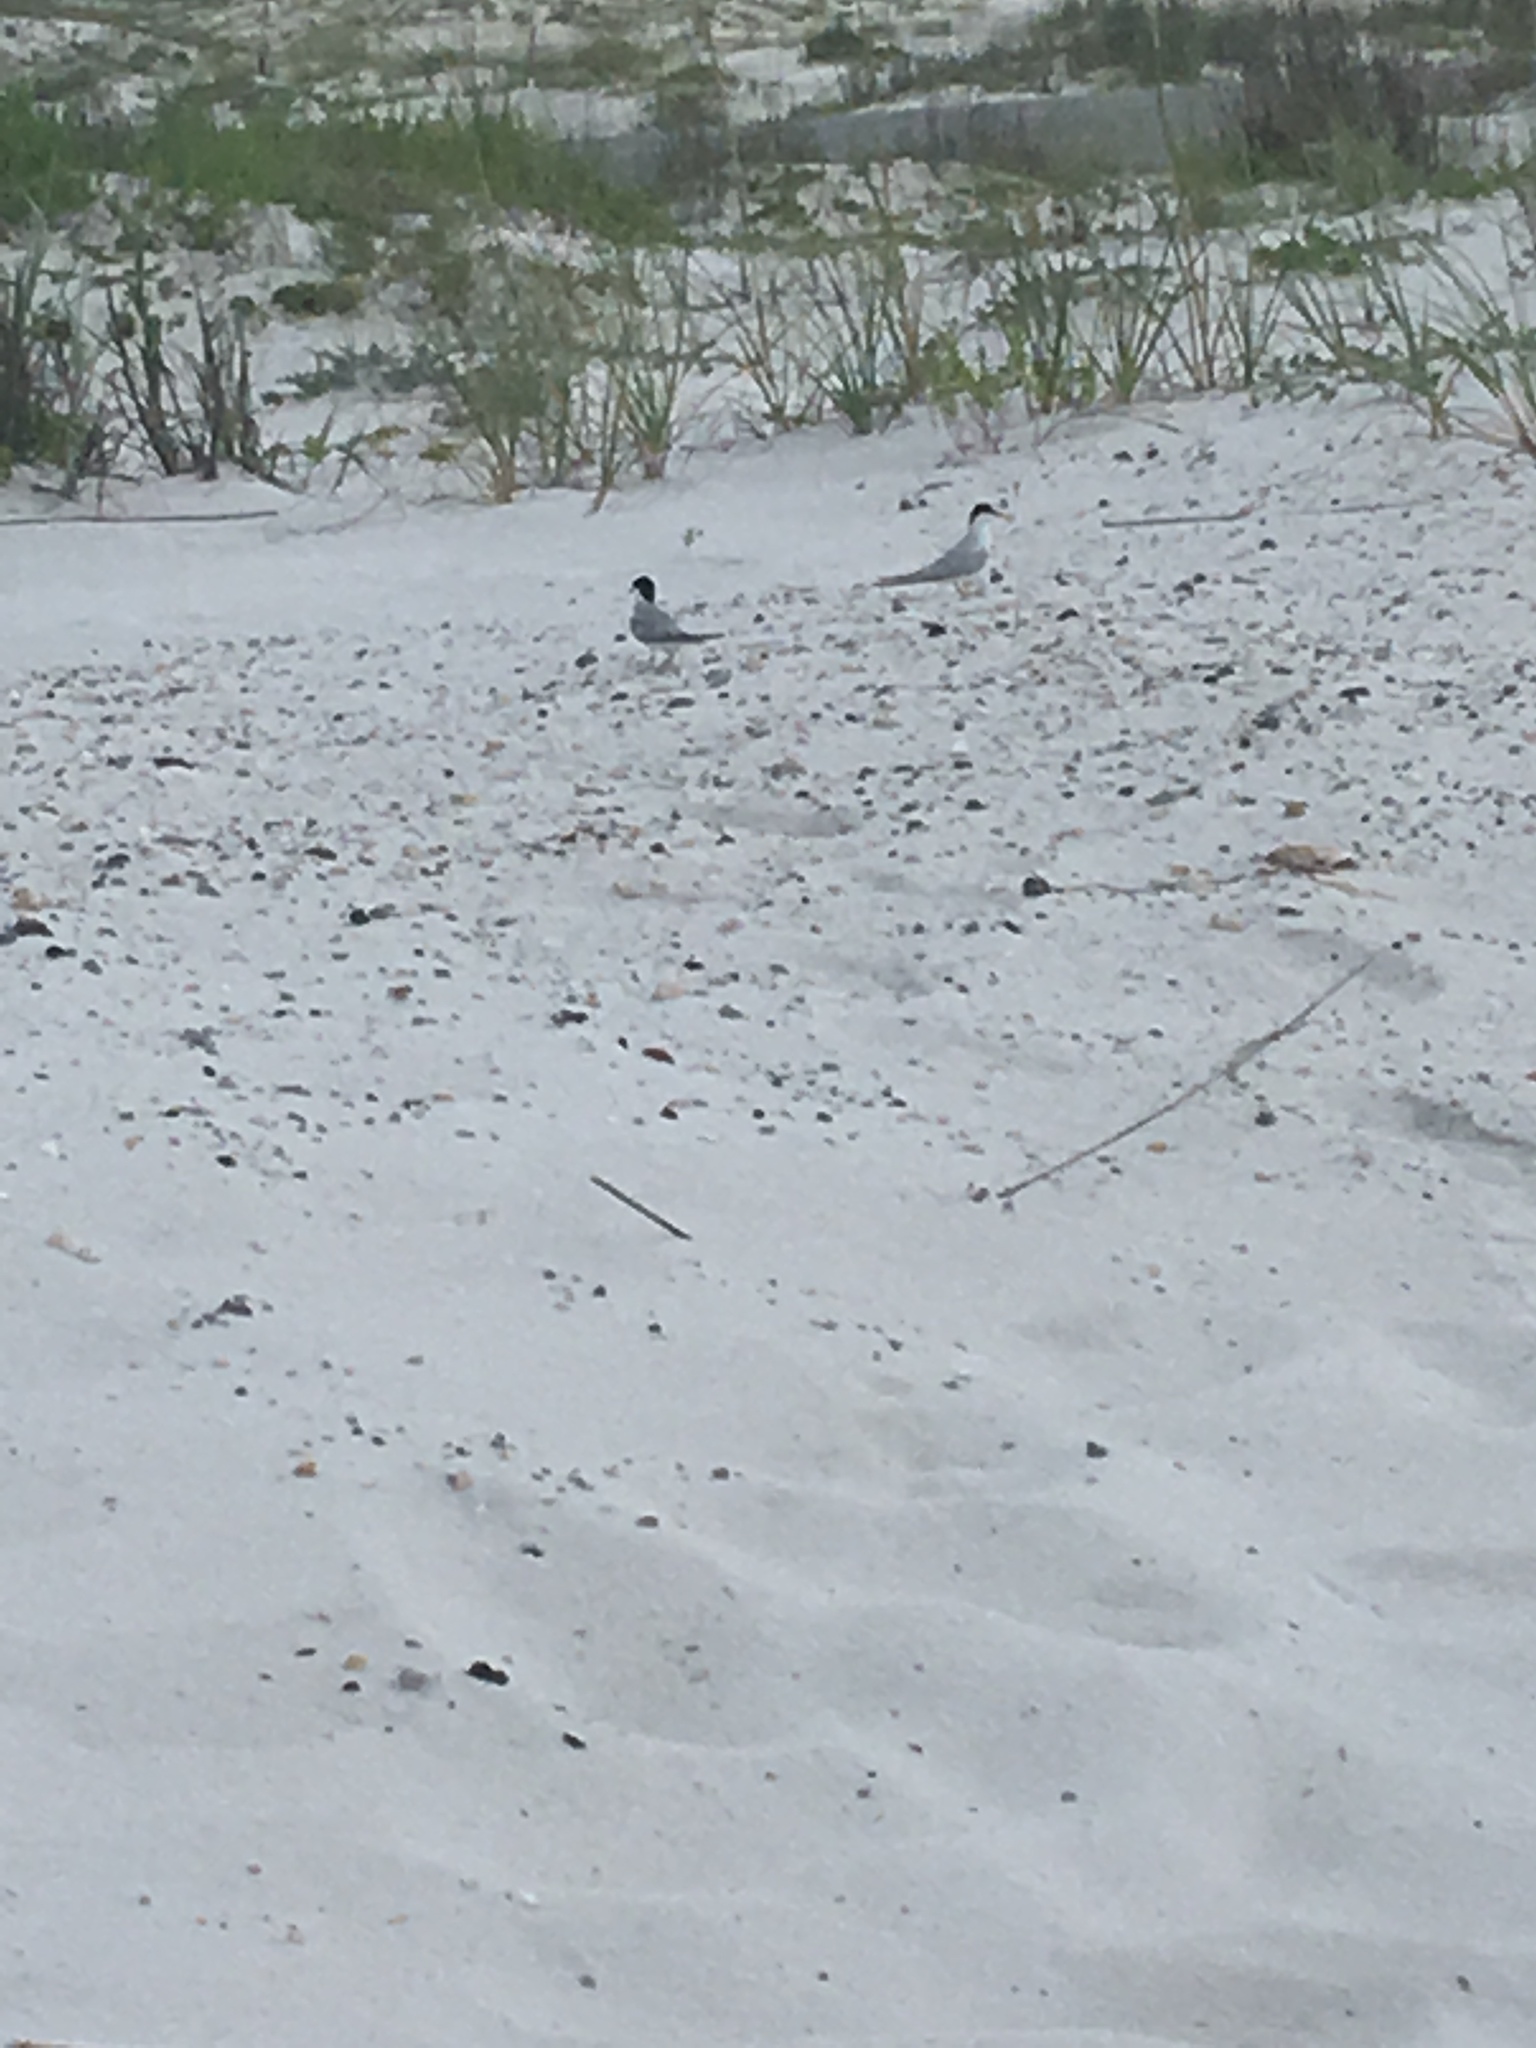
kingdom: Animalia
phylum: Chordata
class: Aves
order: Charadriiformes
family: Laridae
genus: Sternula
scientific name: Sternula antillarum
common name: Least tern
